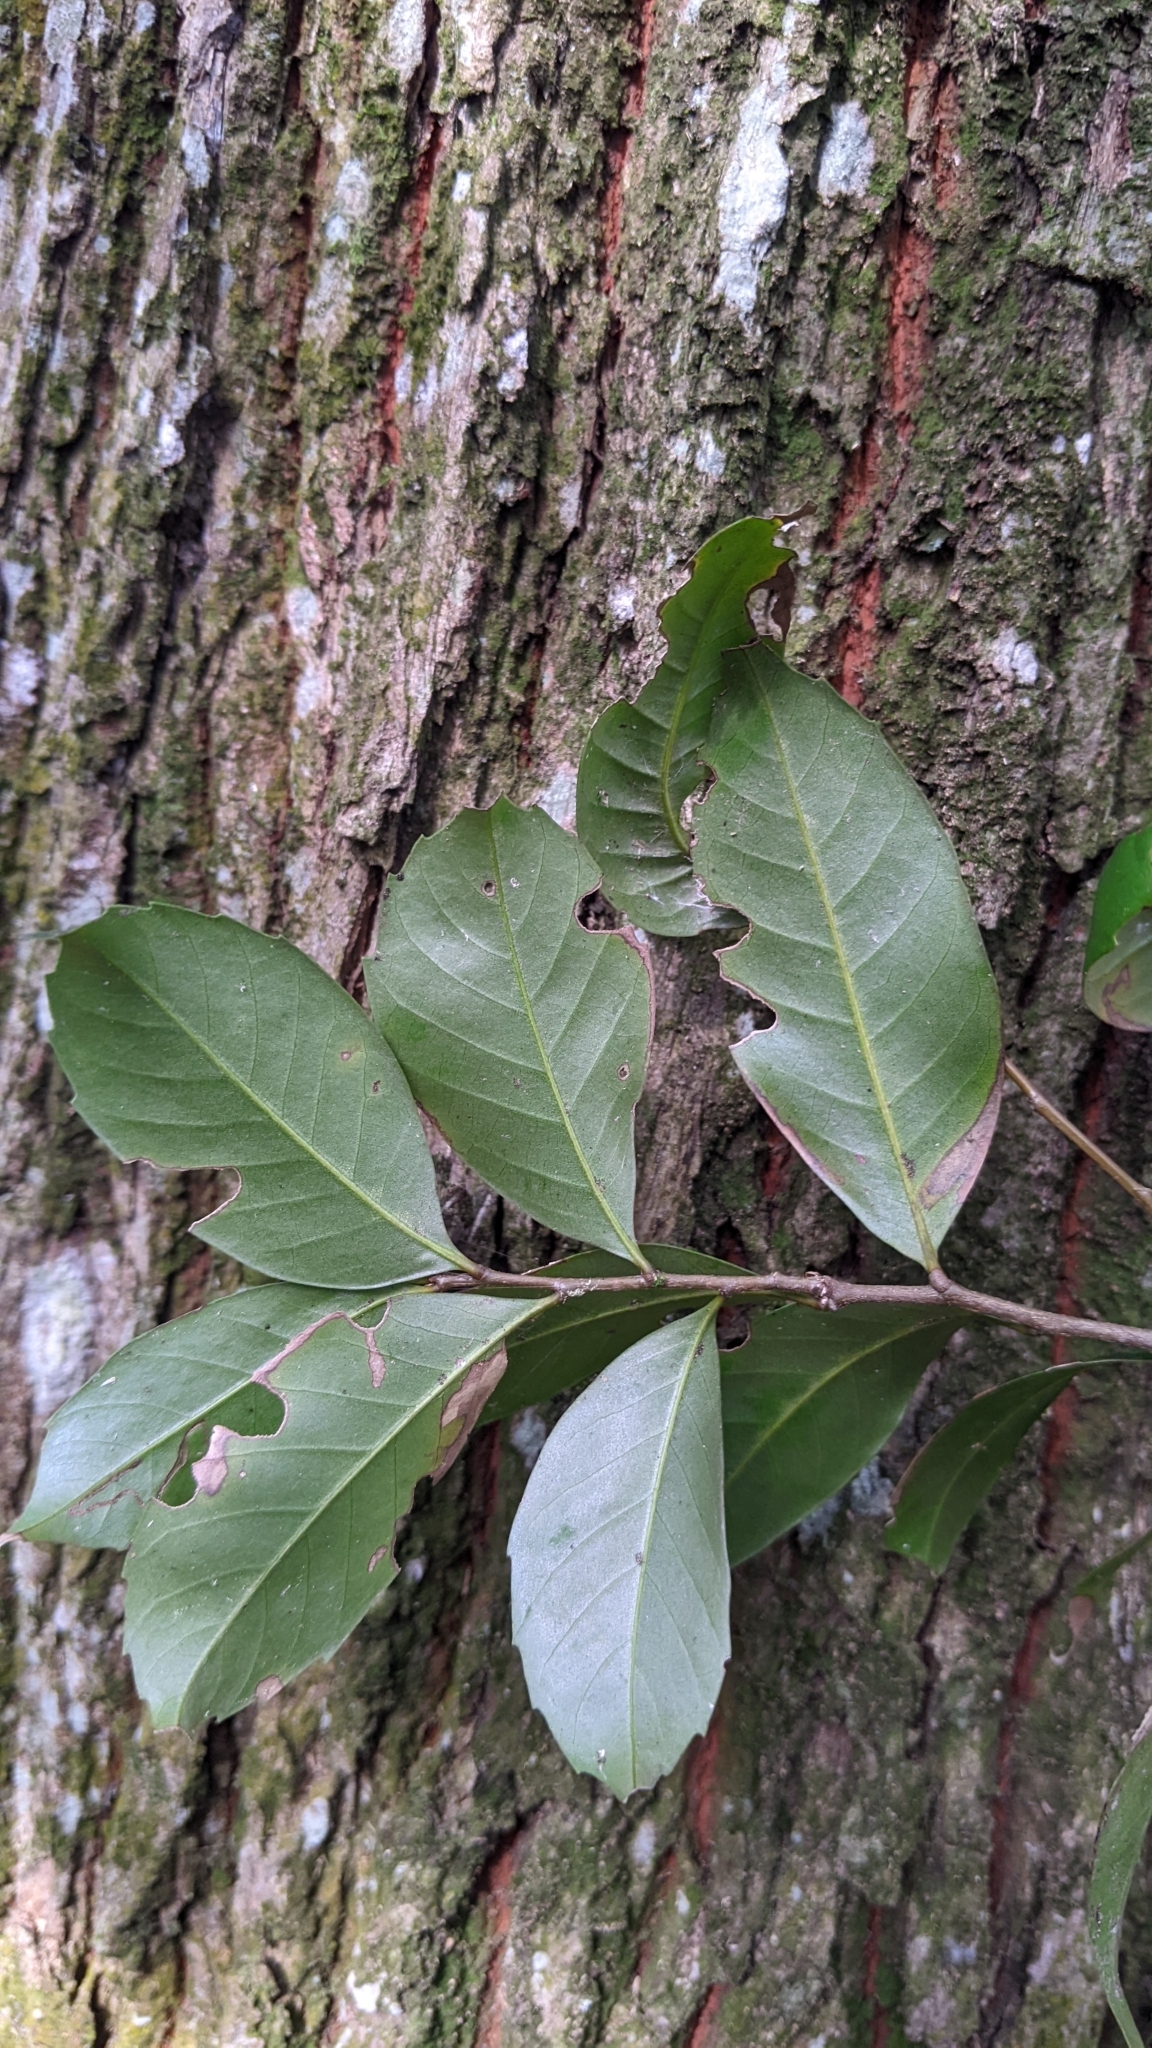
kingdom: Plantae
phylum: Tracheophyta
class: Magnoliopsida
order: Fagales
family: Fagaceae
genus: Lithocarpus
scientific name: Lithocarpus uraianus
